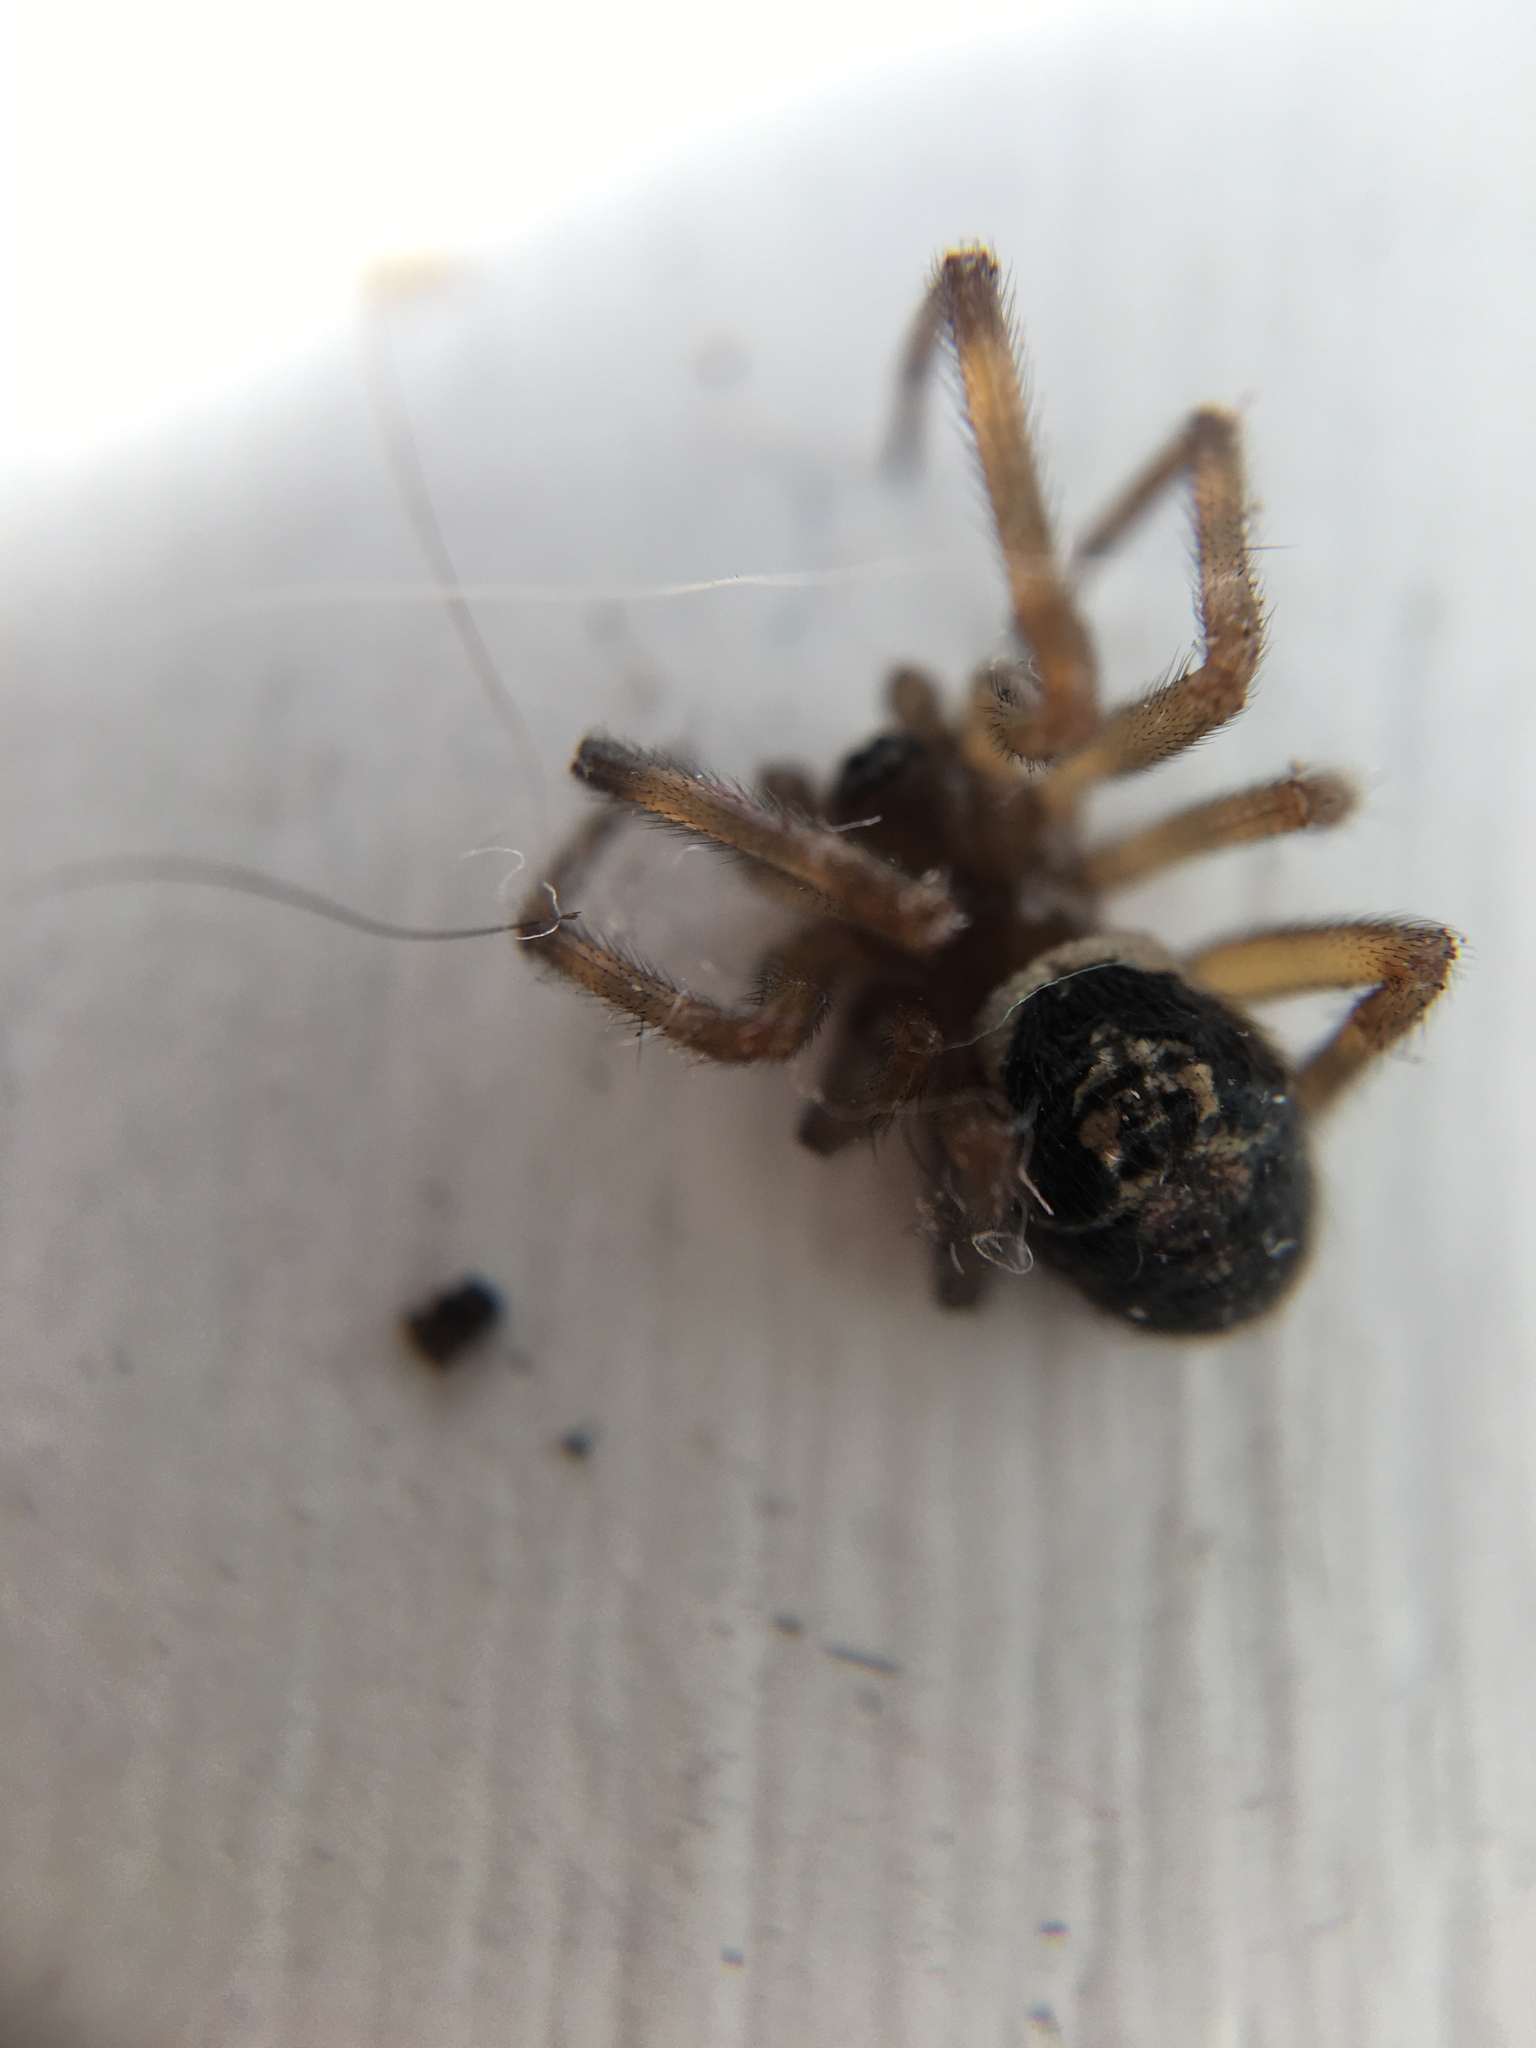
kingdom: Animalia
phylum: Arthropoda
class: Arachnida
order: Araneae
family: Theridiidae
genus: Steatoda
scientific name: Steatoda nobilis
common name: Cobweb weaver
